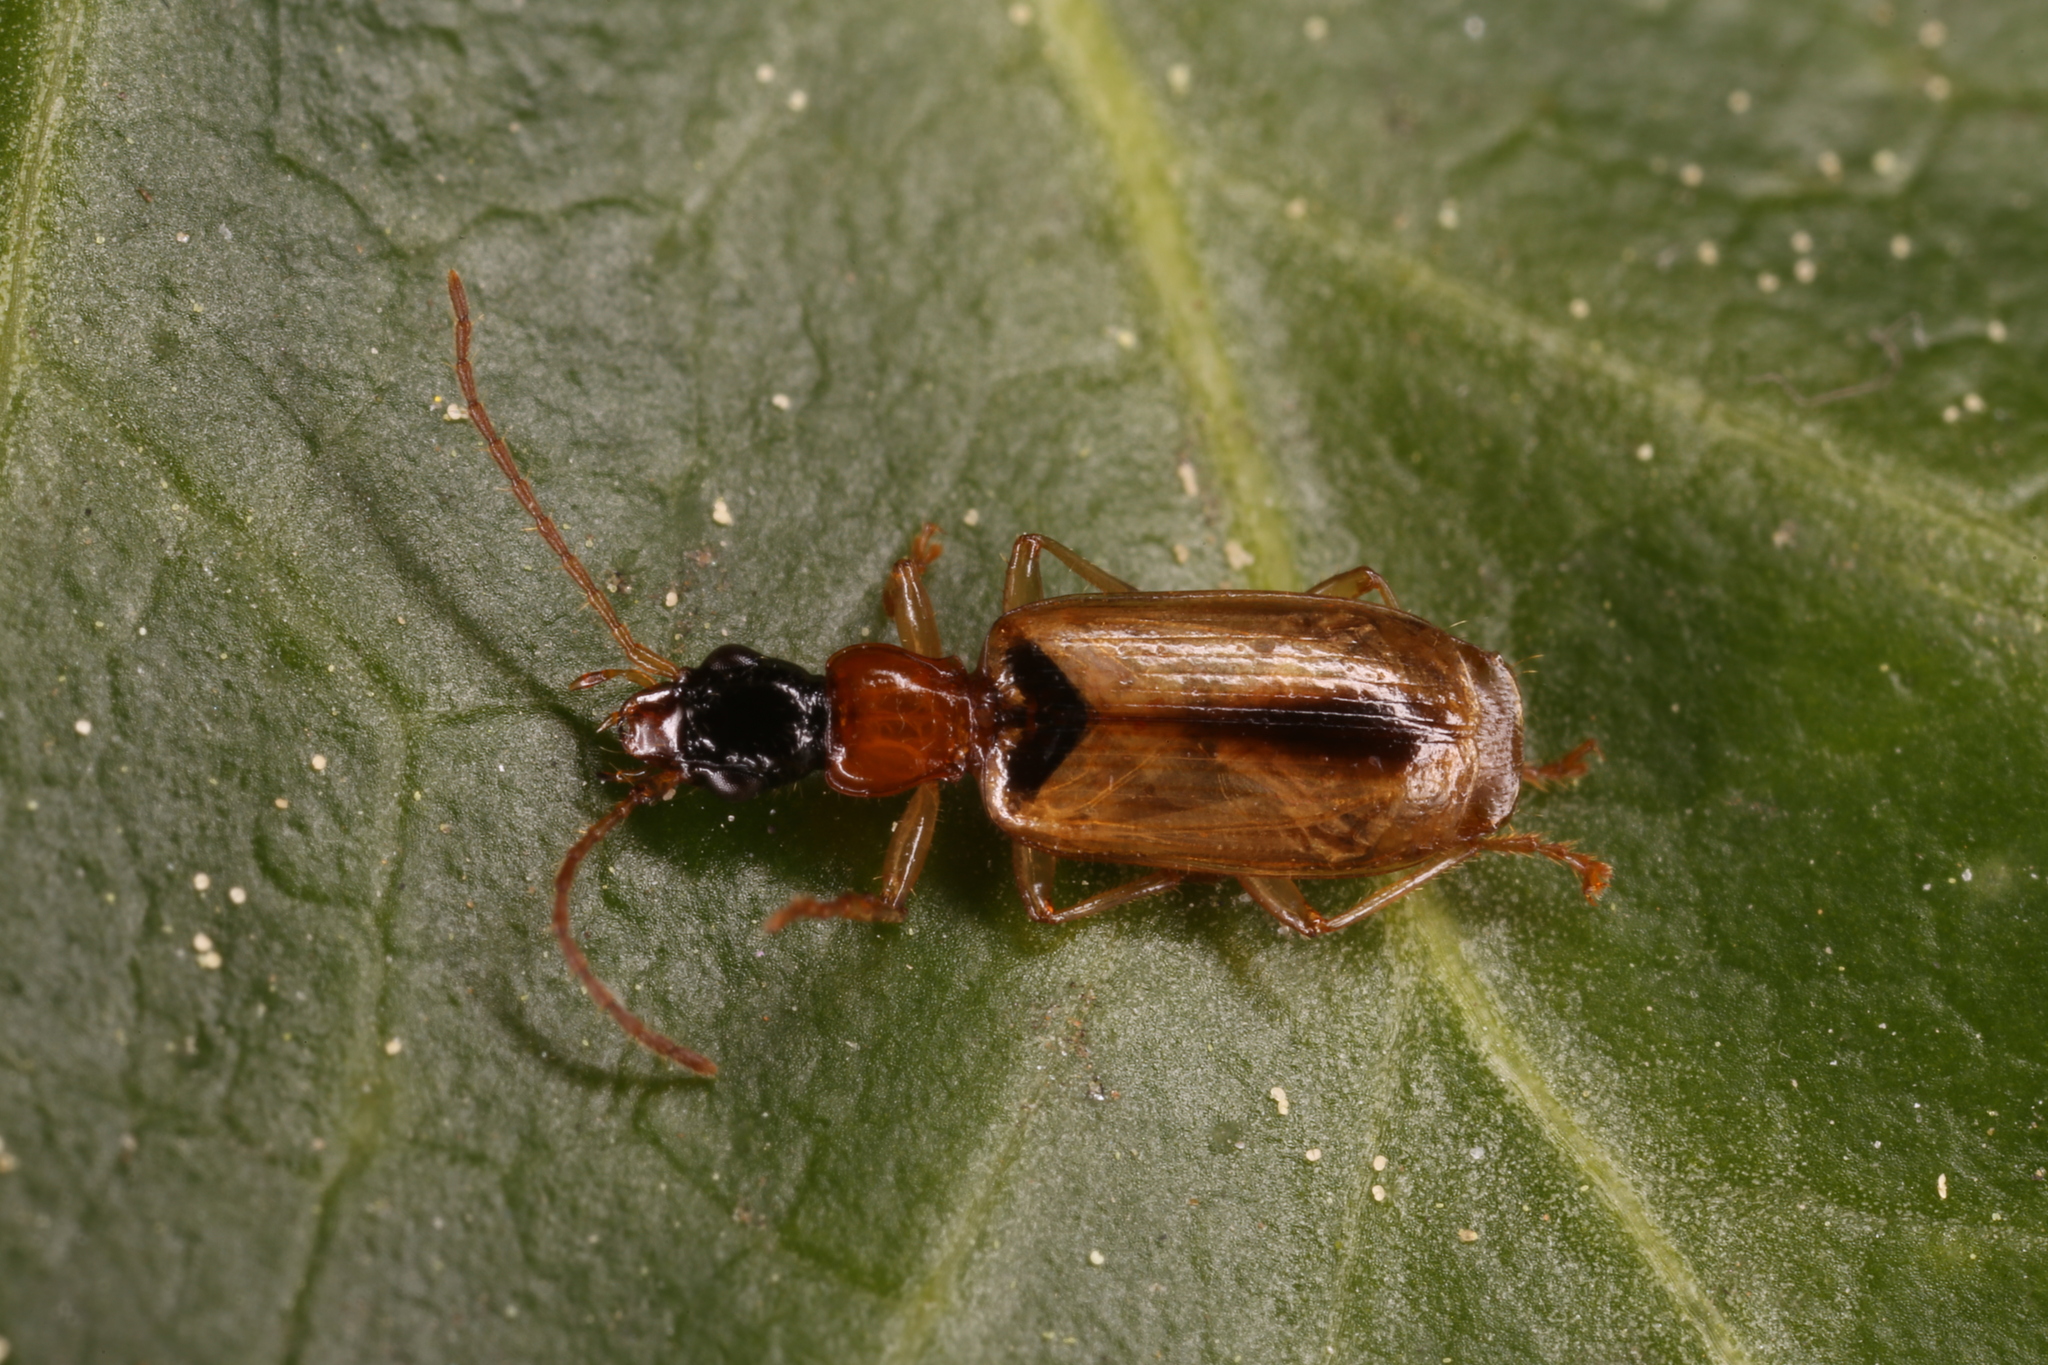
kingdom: Animalia
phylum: Arthropoda
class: Insecta
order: Coleoptera
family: Carabidae
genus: Demetrias
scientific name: Demetrias atricapillus
